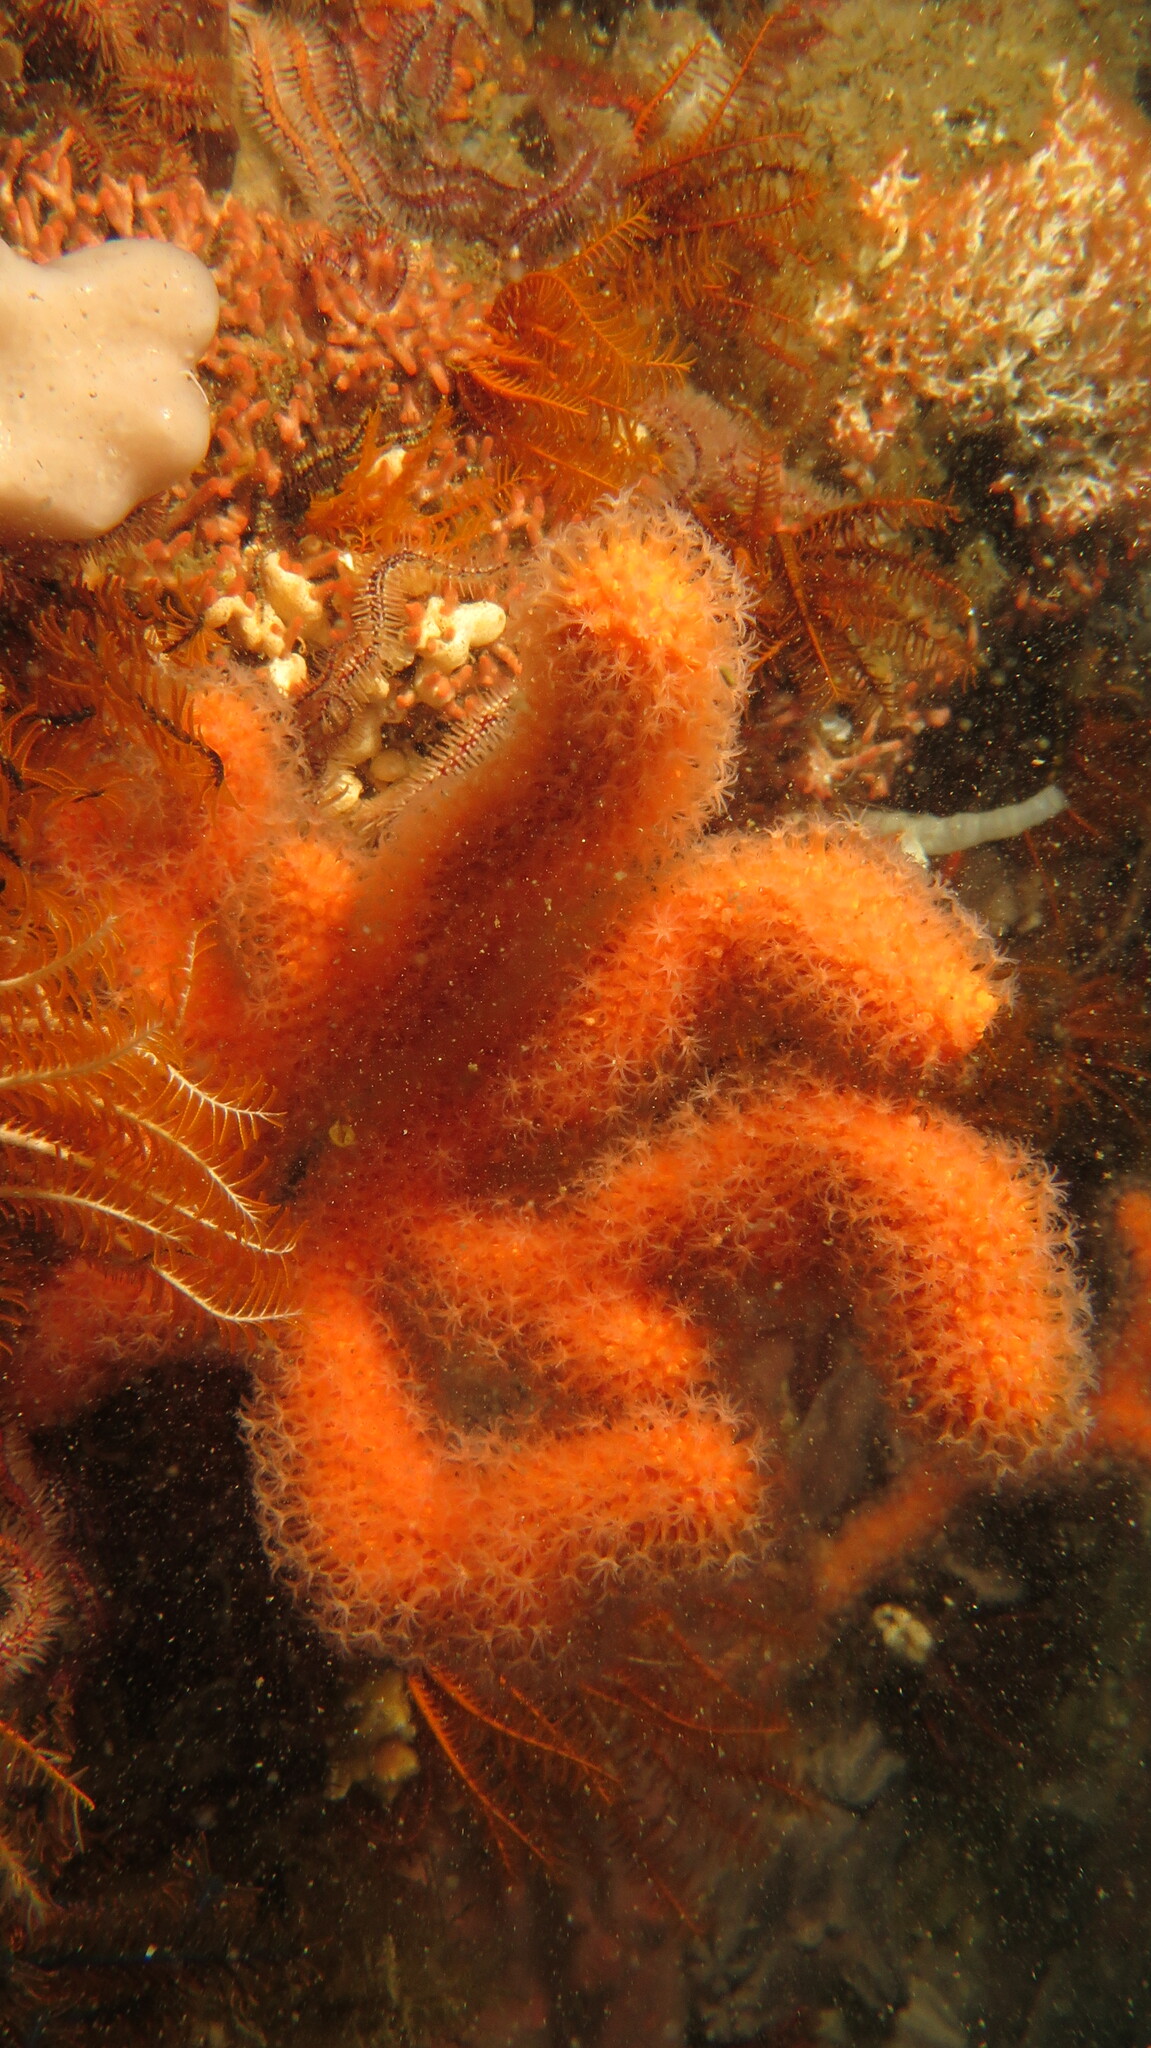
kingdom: Animalia
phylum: Cnidaria
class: Anthozoa
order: Malacalcyonacea
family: Eunicellidae
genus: Eunicella
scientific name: Eunicella tricoronata
